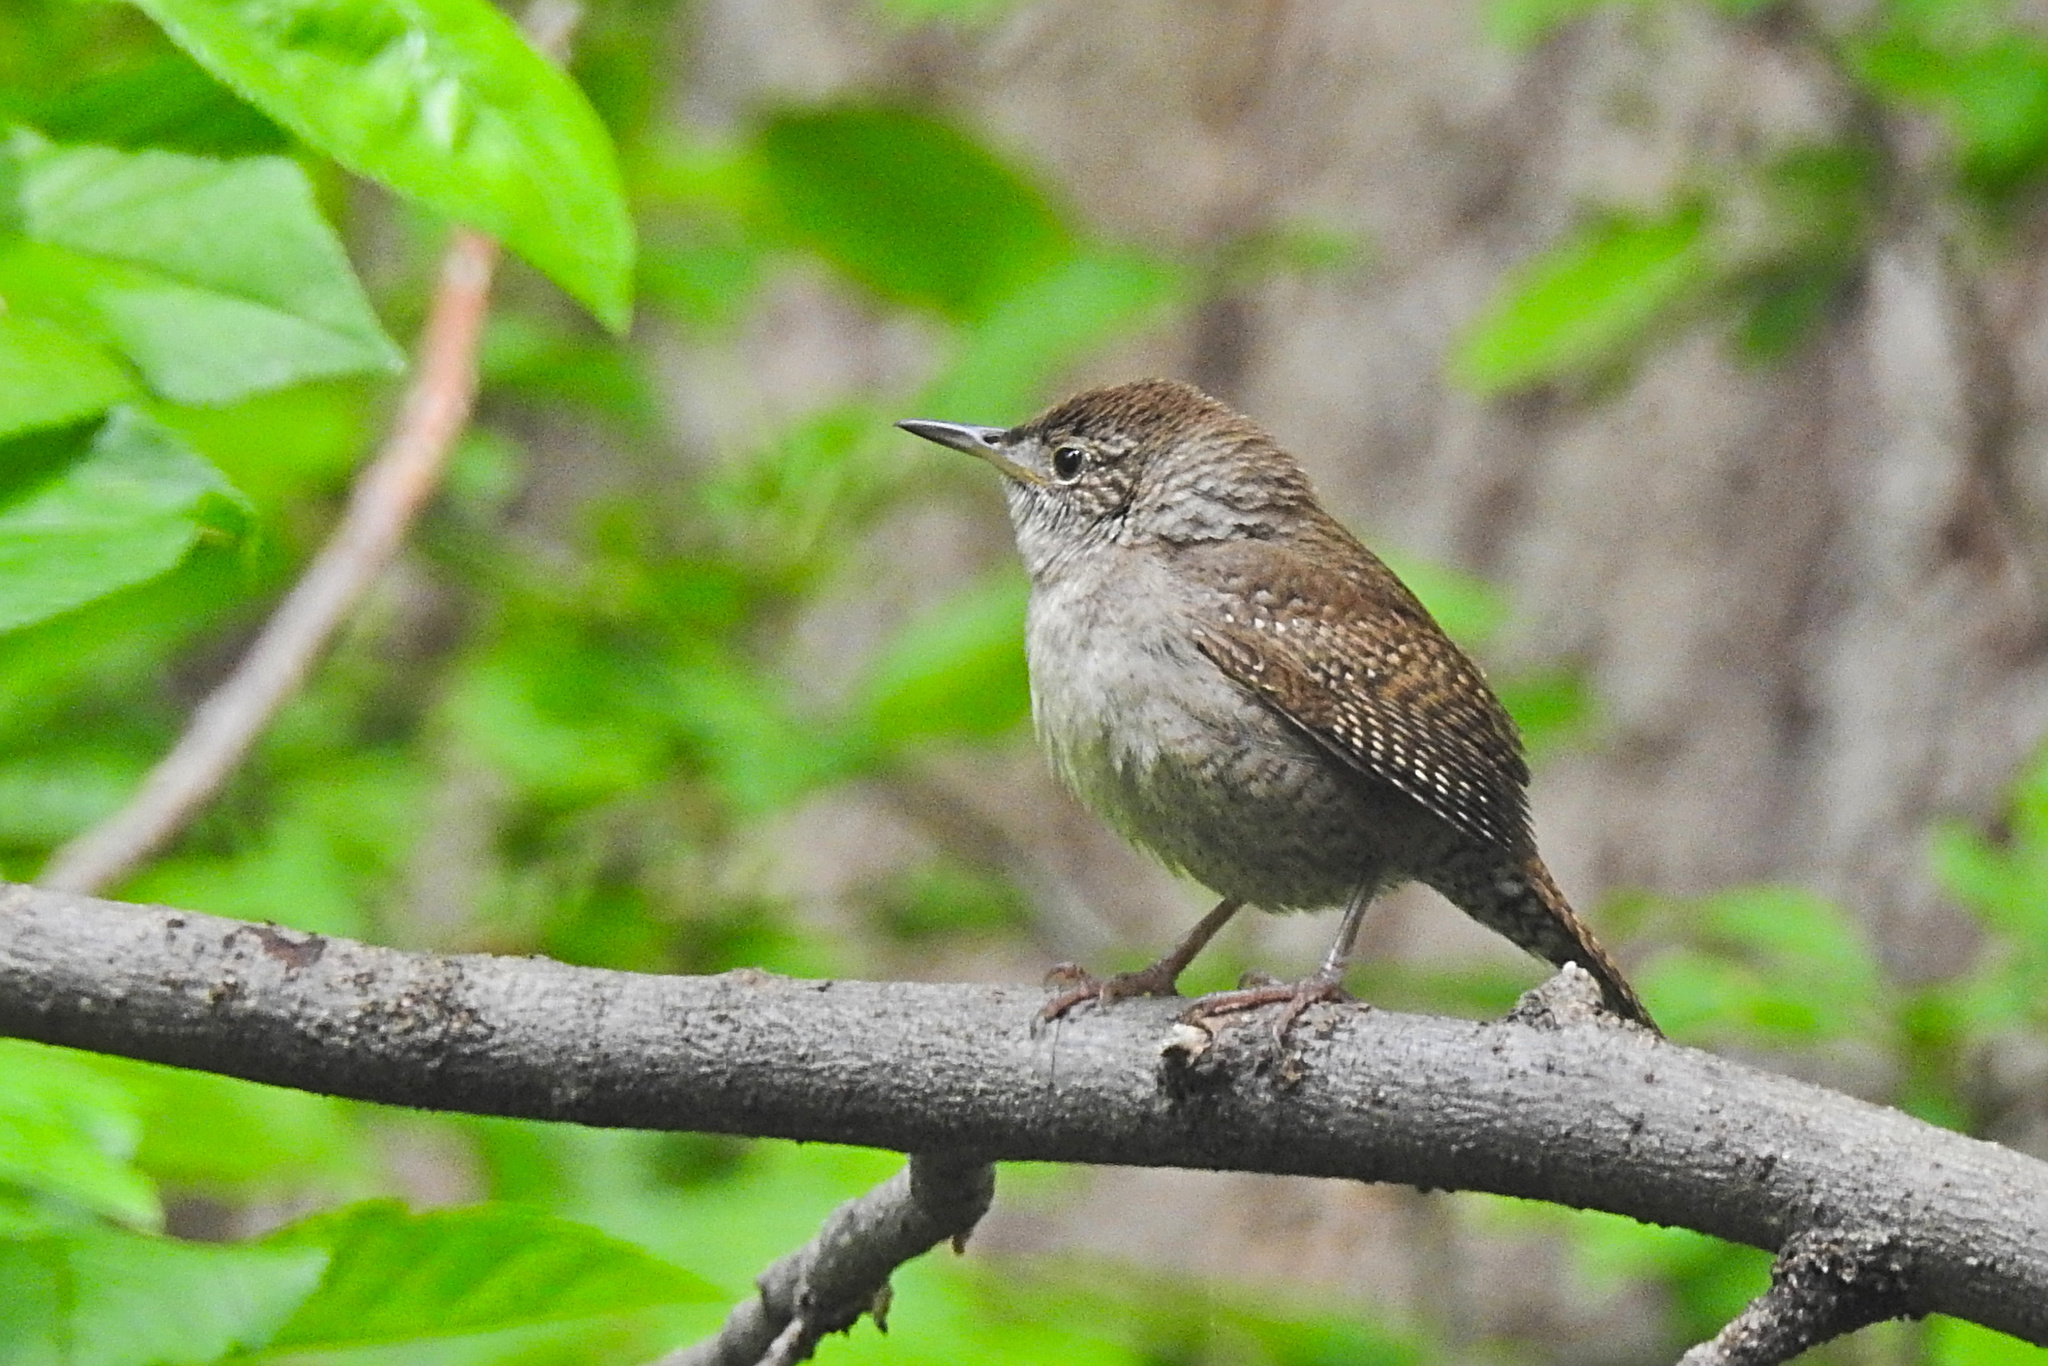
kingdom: Animalia
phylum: Chordata
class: Aves
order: Passeriformes
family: Troglodytidae
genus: Troglodytes
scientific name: Troglodytes aedon
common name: House wren
